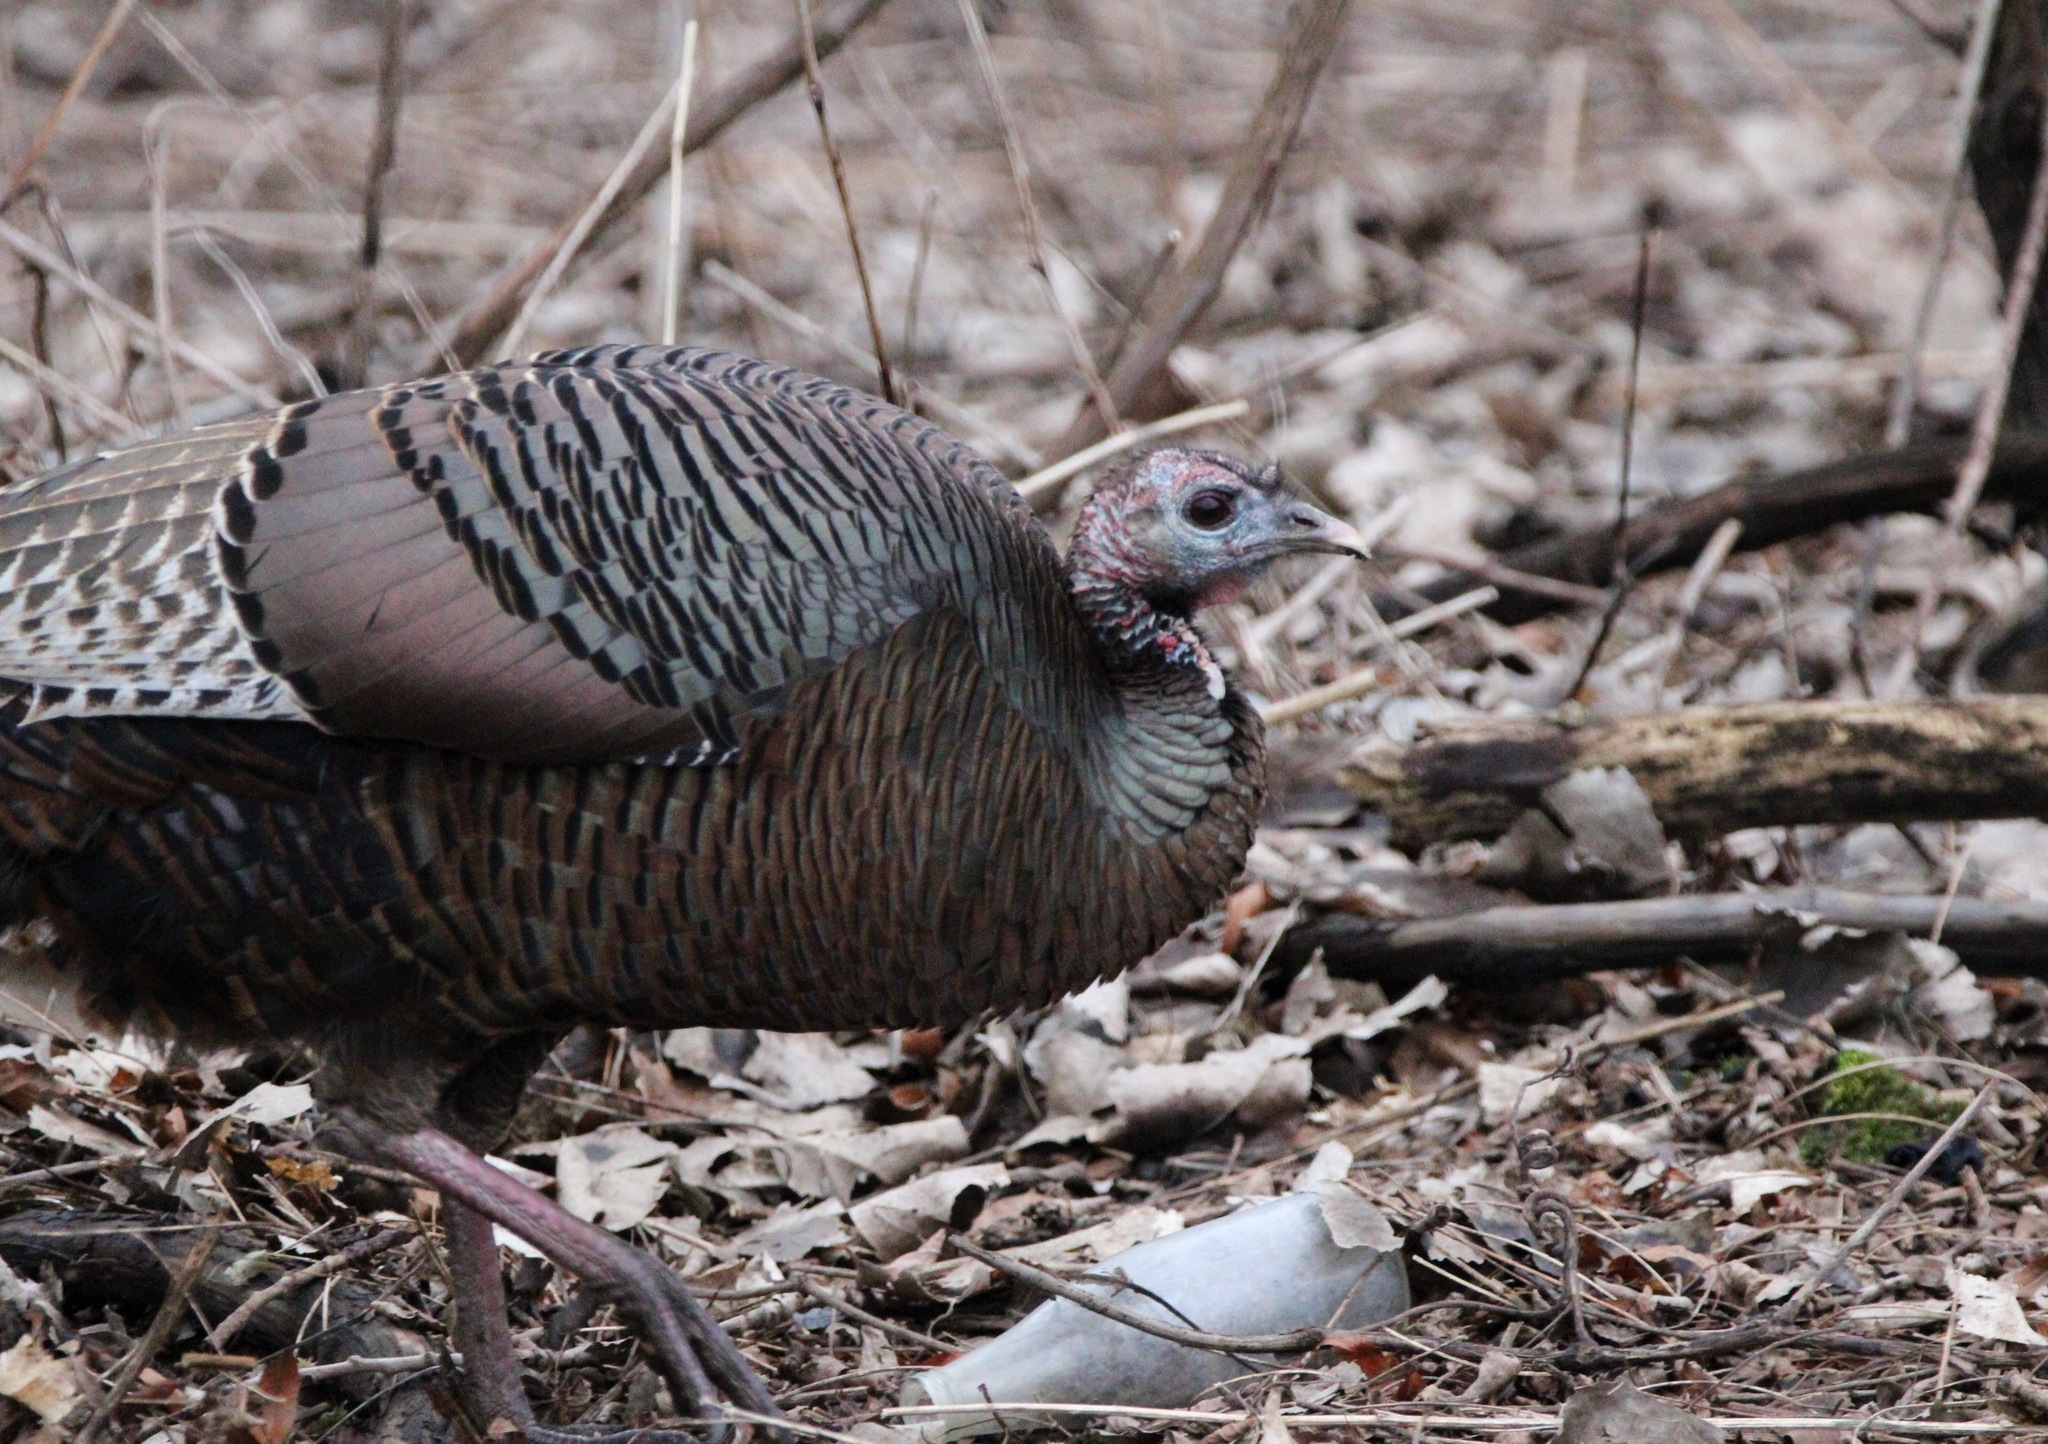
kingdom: Animalia
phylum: Chordata
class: Aves
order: Galliformes
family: Phasianidae
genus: Meleagris
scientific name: Meleagris gallopavo
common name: Wild turkey
